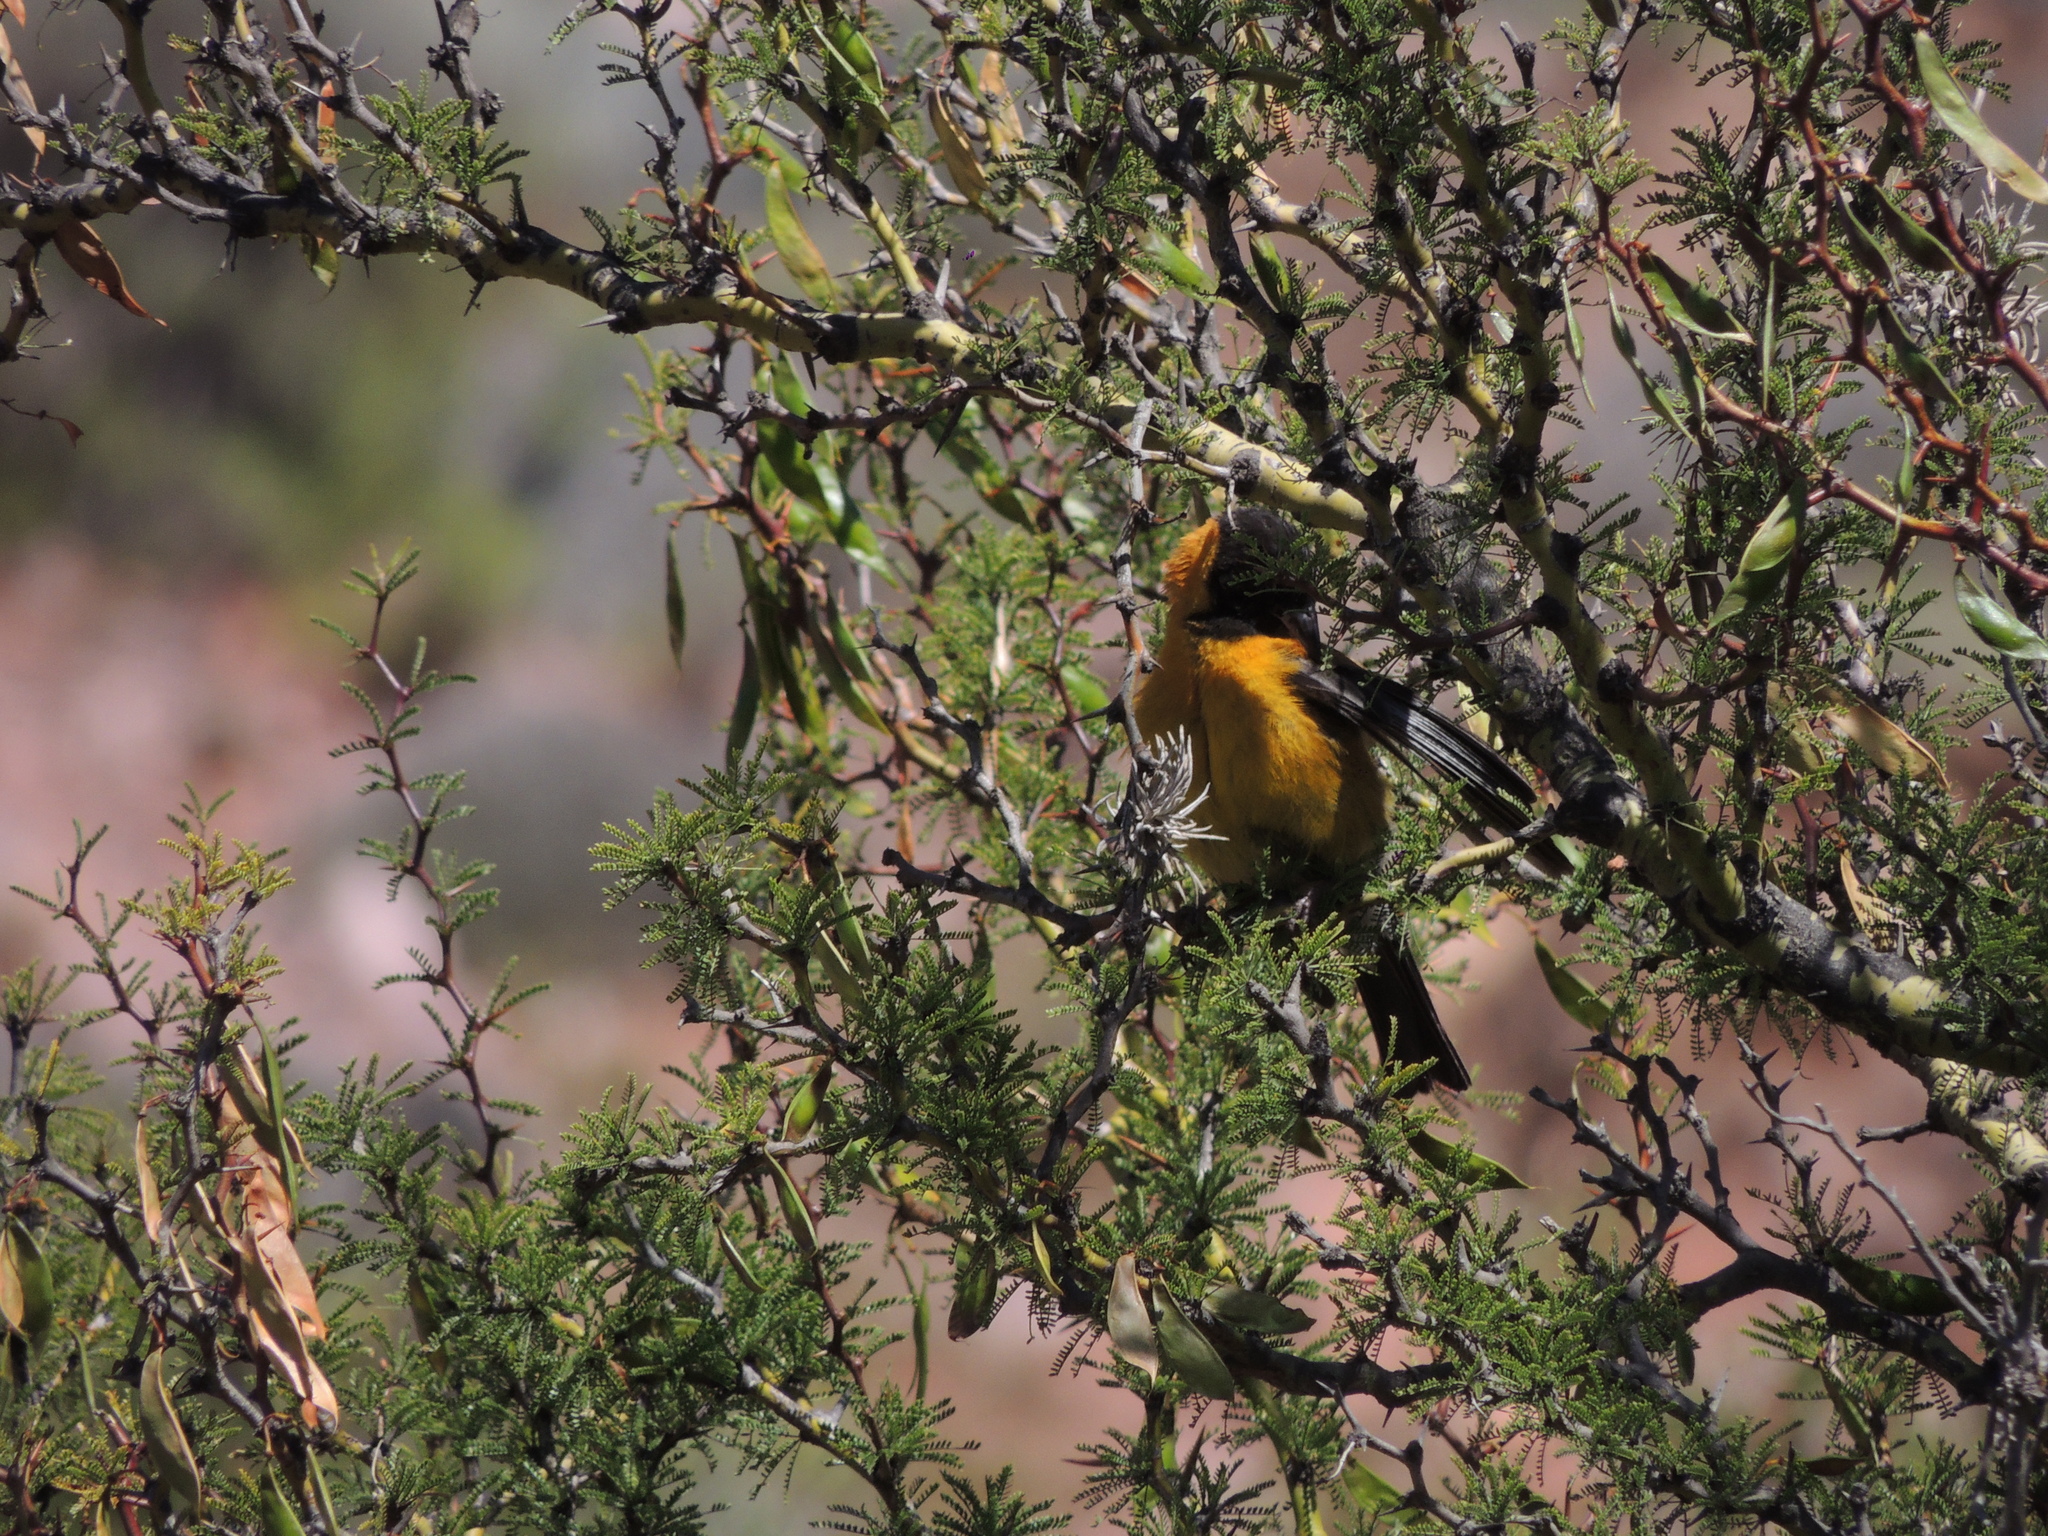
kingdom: Animalia
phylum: Chordata
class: Aves
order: Passeriformes
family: Thraupidae
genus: Phrygilus
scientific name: Phrygilus atriceps
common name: Black-hooded sierra finch
